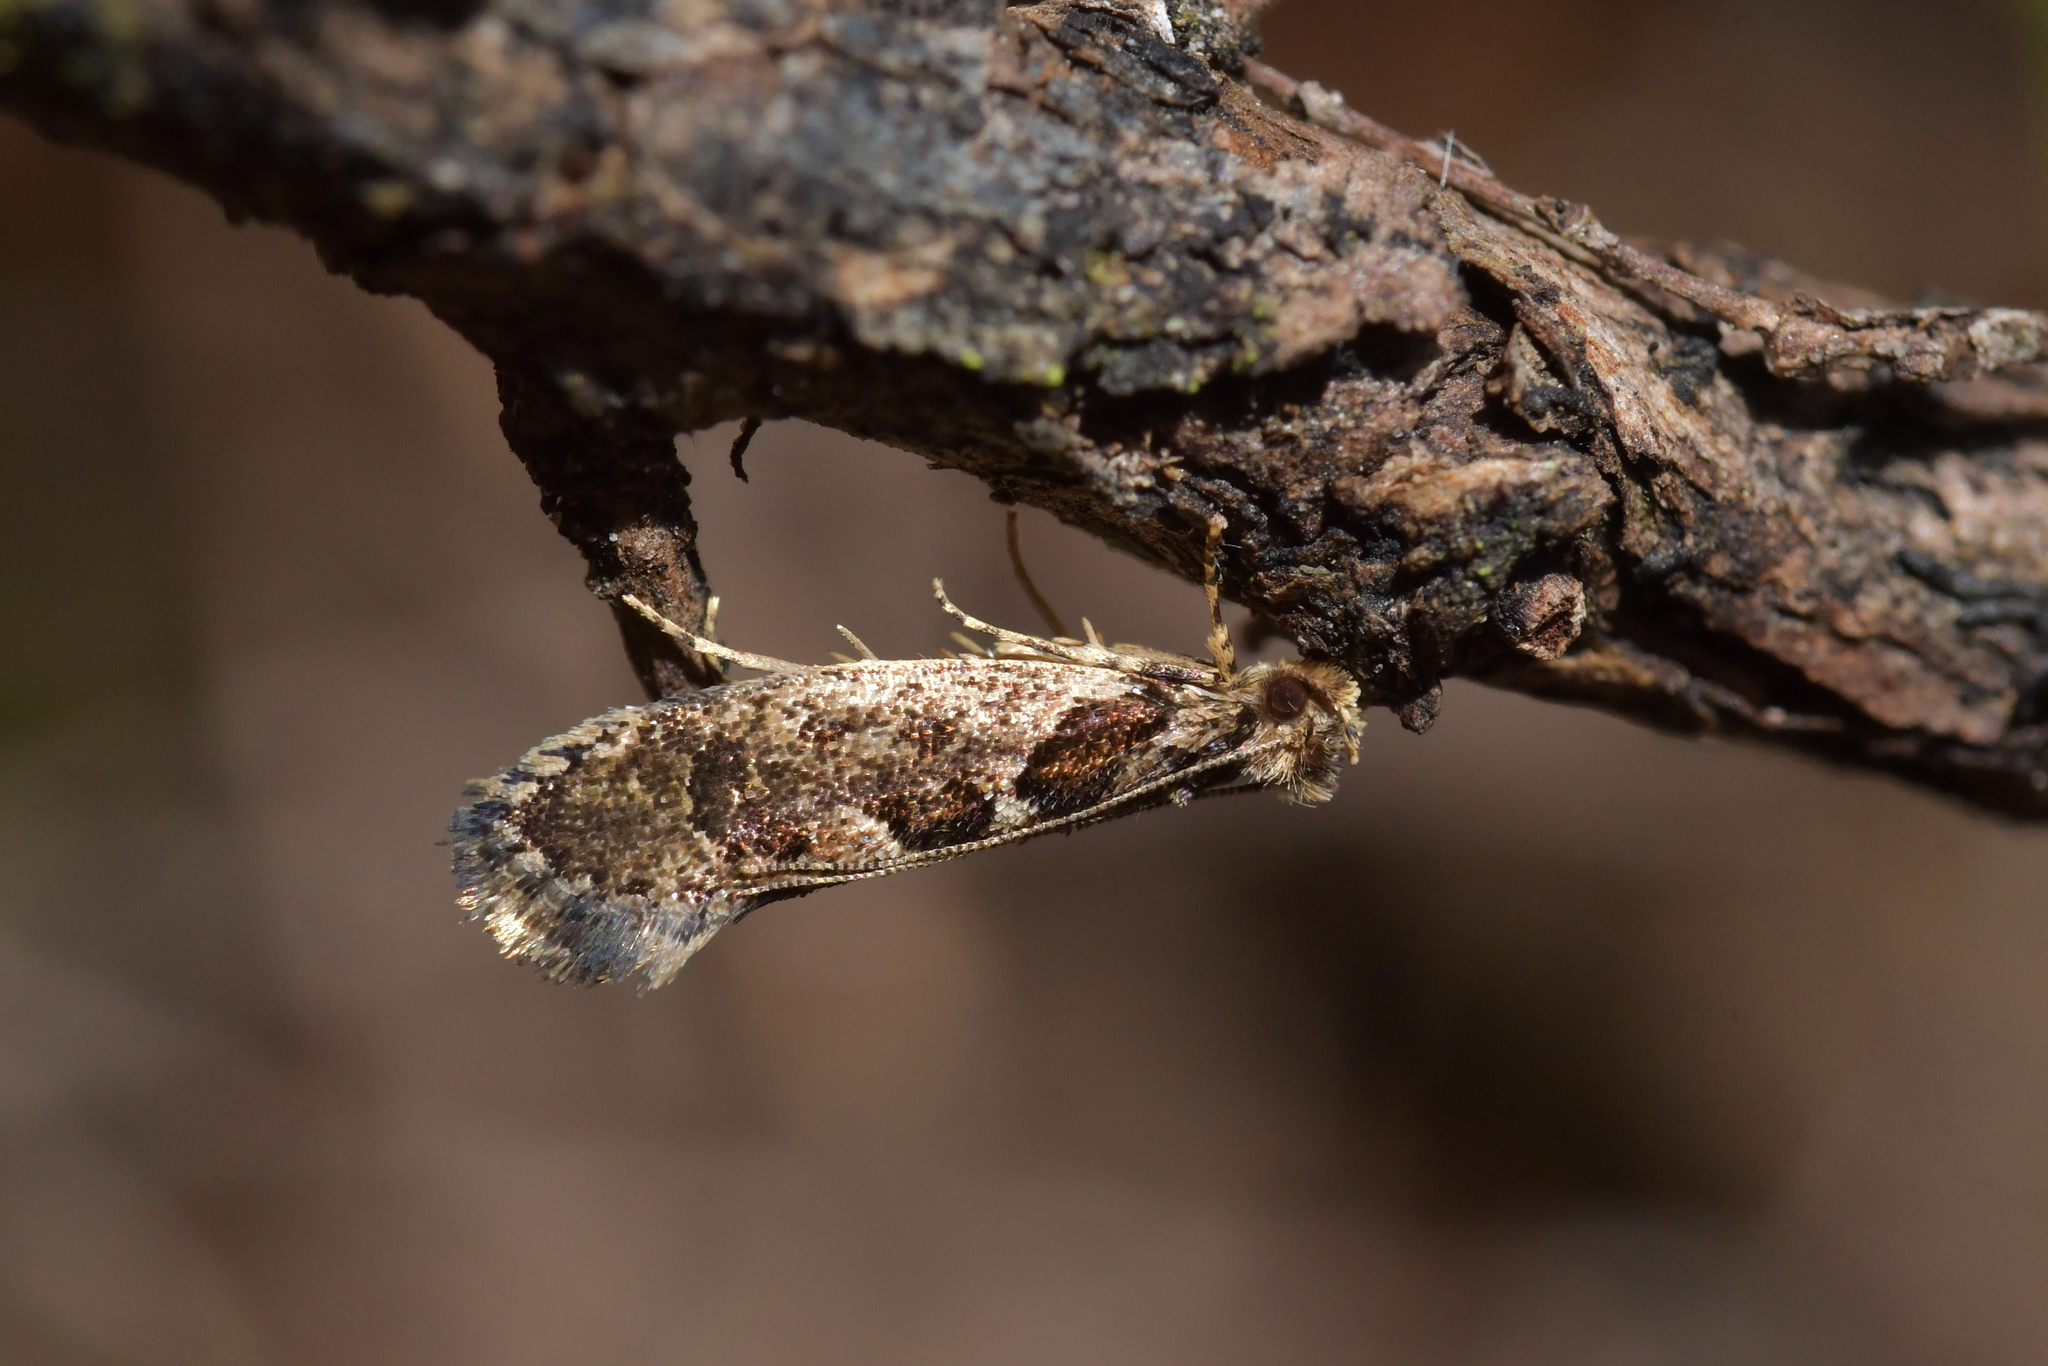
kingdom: Animalia
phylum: Arthropoda
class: Insecta
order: Lepidoptera
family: Tineidae
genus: Erechthias
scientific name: Erechthias capnitis
